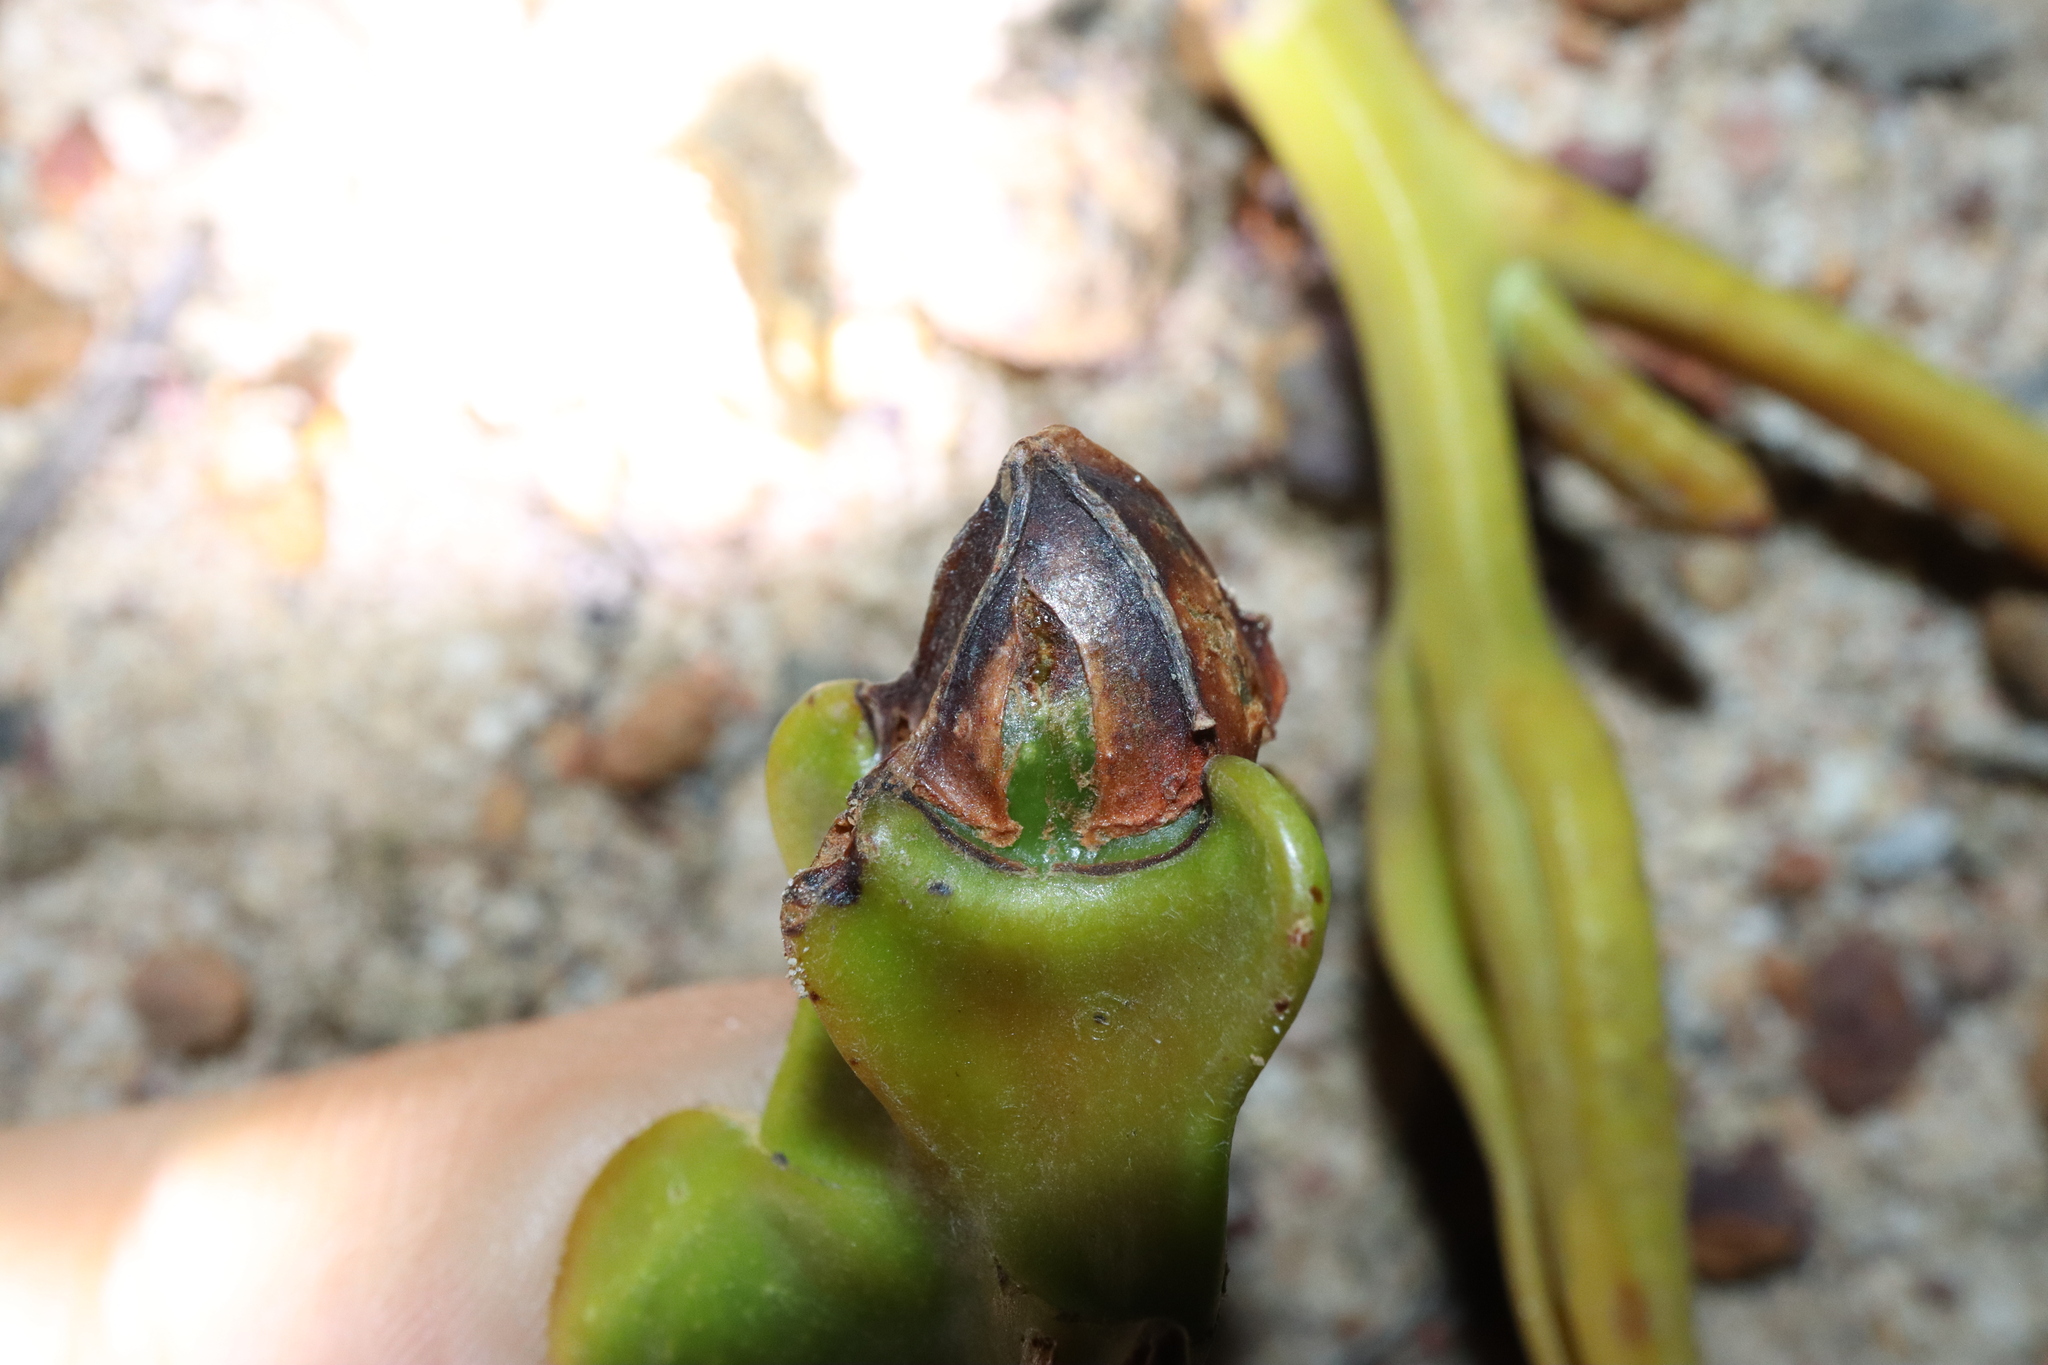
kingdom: Plantae
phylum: Tracheophyta
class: Magnoliopsida
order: Myrtales
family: Myrtaceae
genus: Eucalyptus
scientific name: Eucalyptus tetraptera
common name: Four-wing mallee
